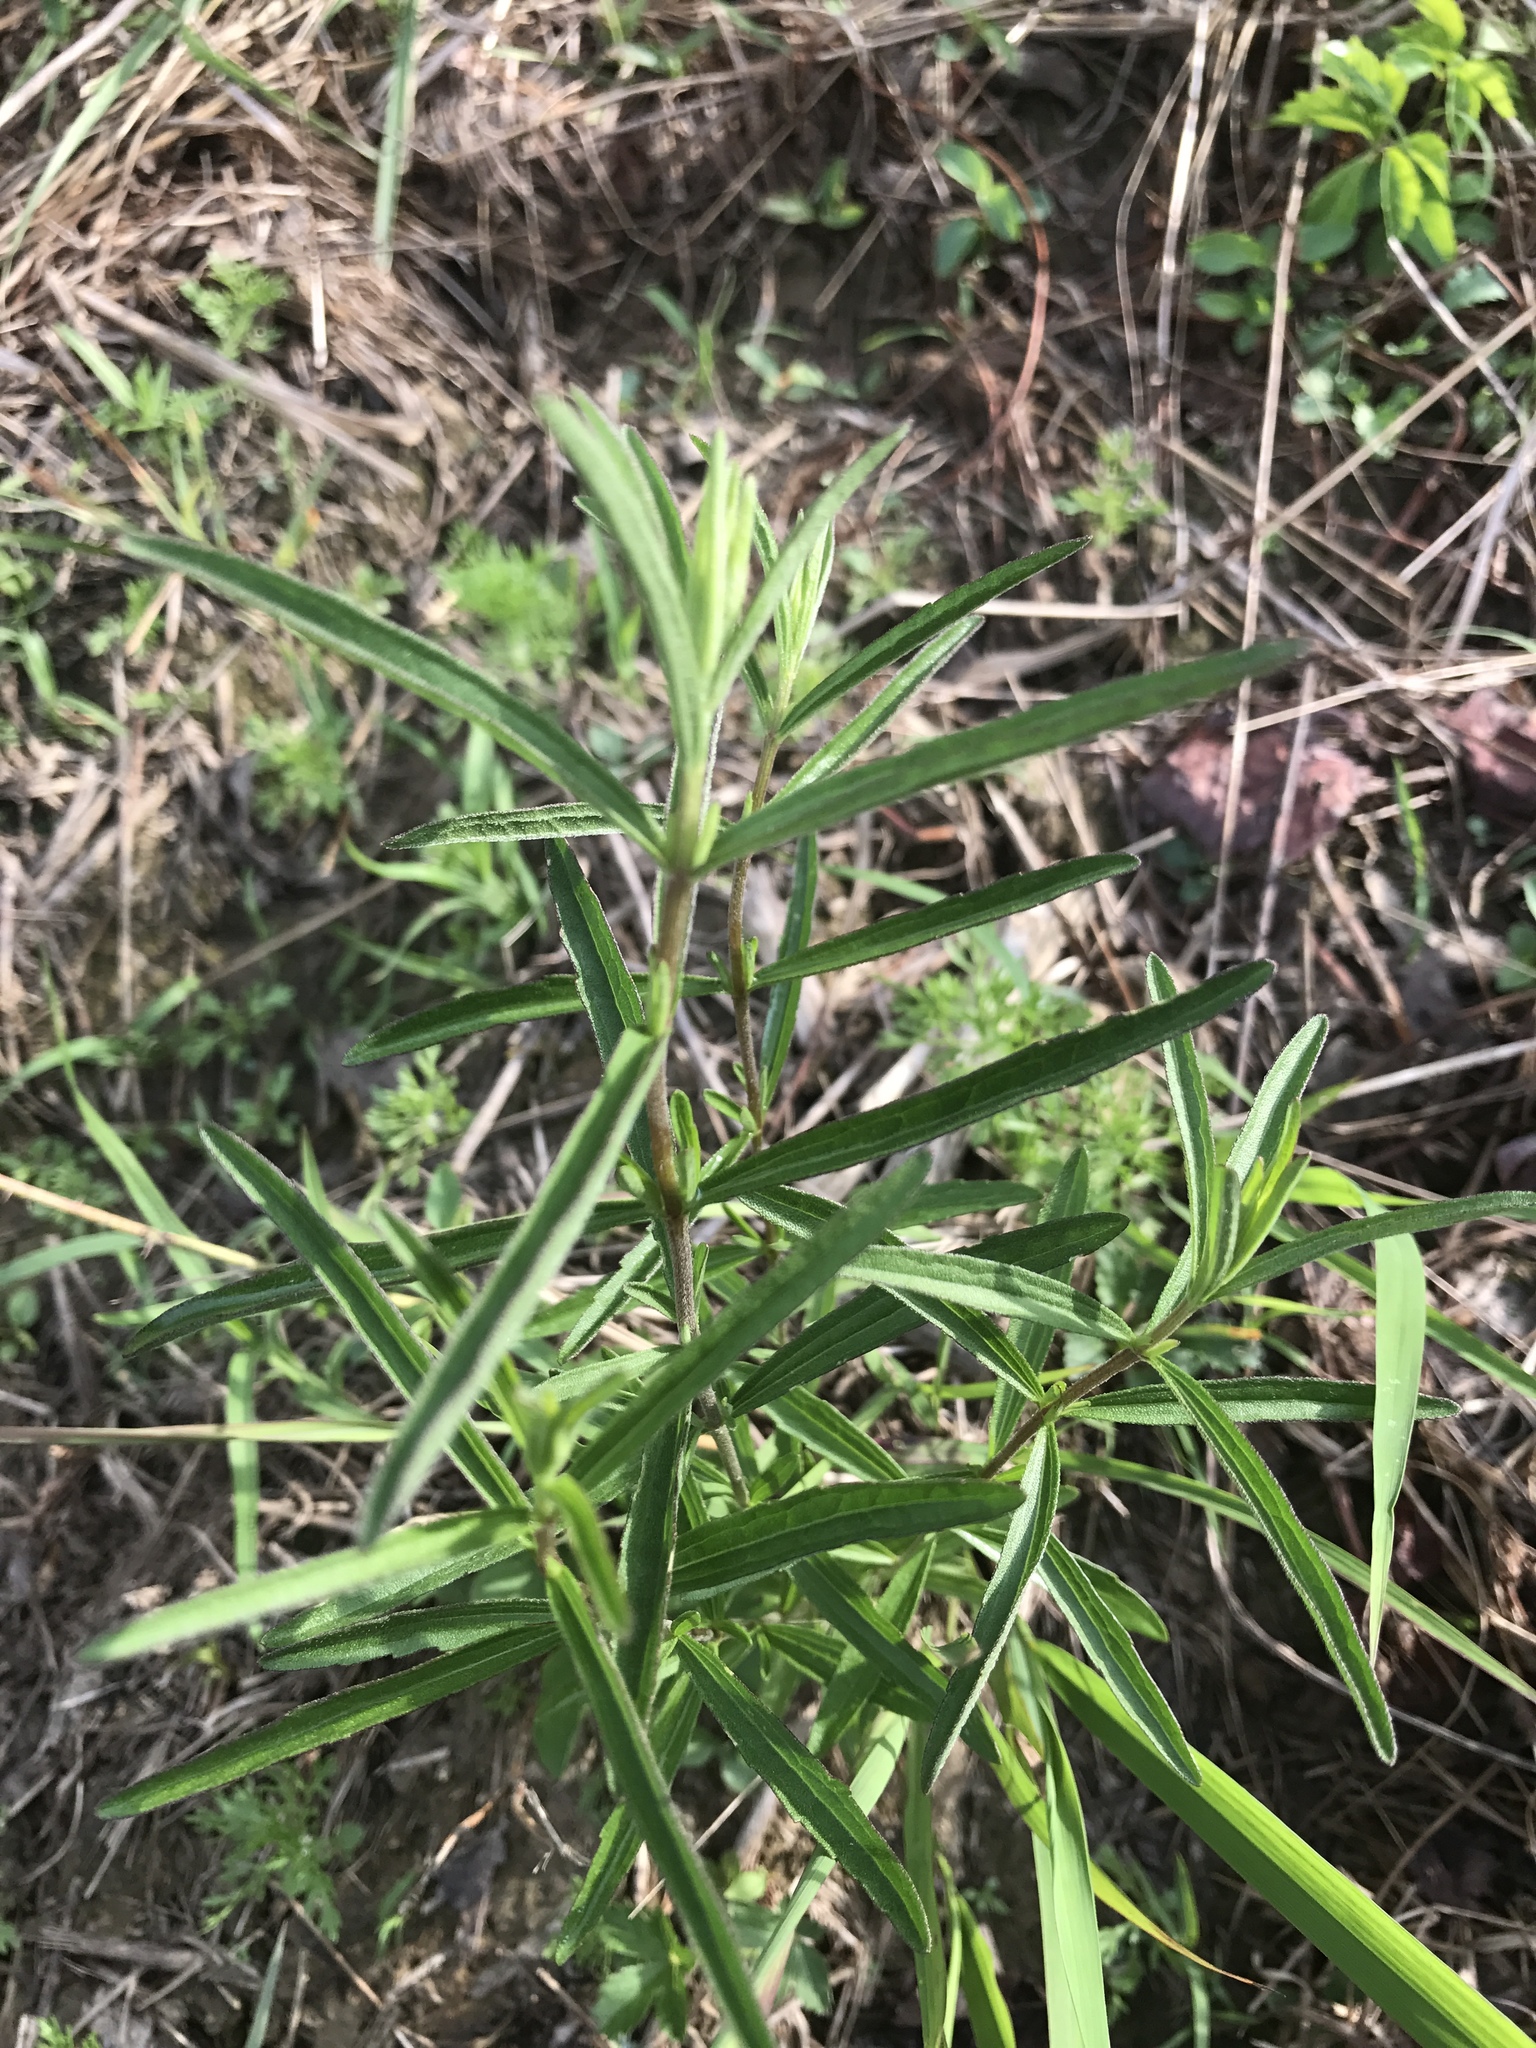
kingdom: Plantae
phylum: Tracheophyta
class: Magnoliopsida
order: Asterales
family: Asteraceae
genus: Eupatorium
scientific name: Eupatorium torreyanum
